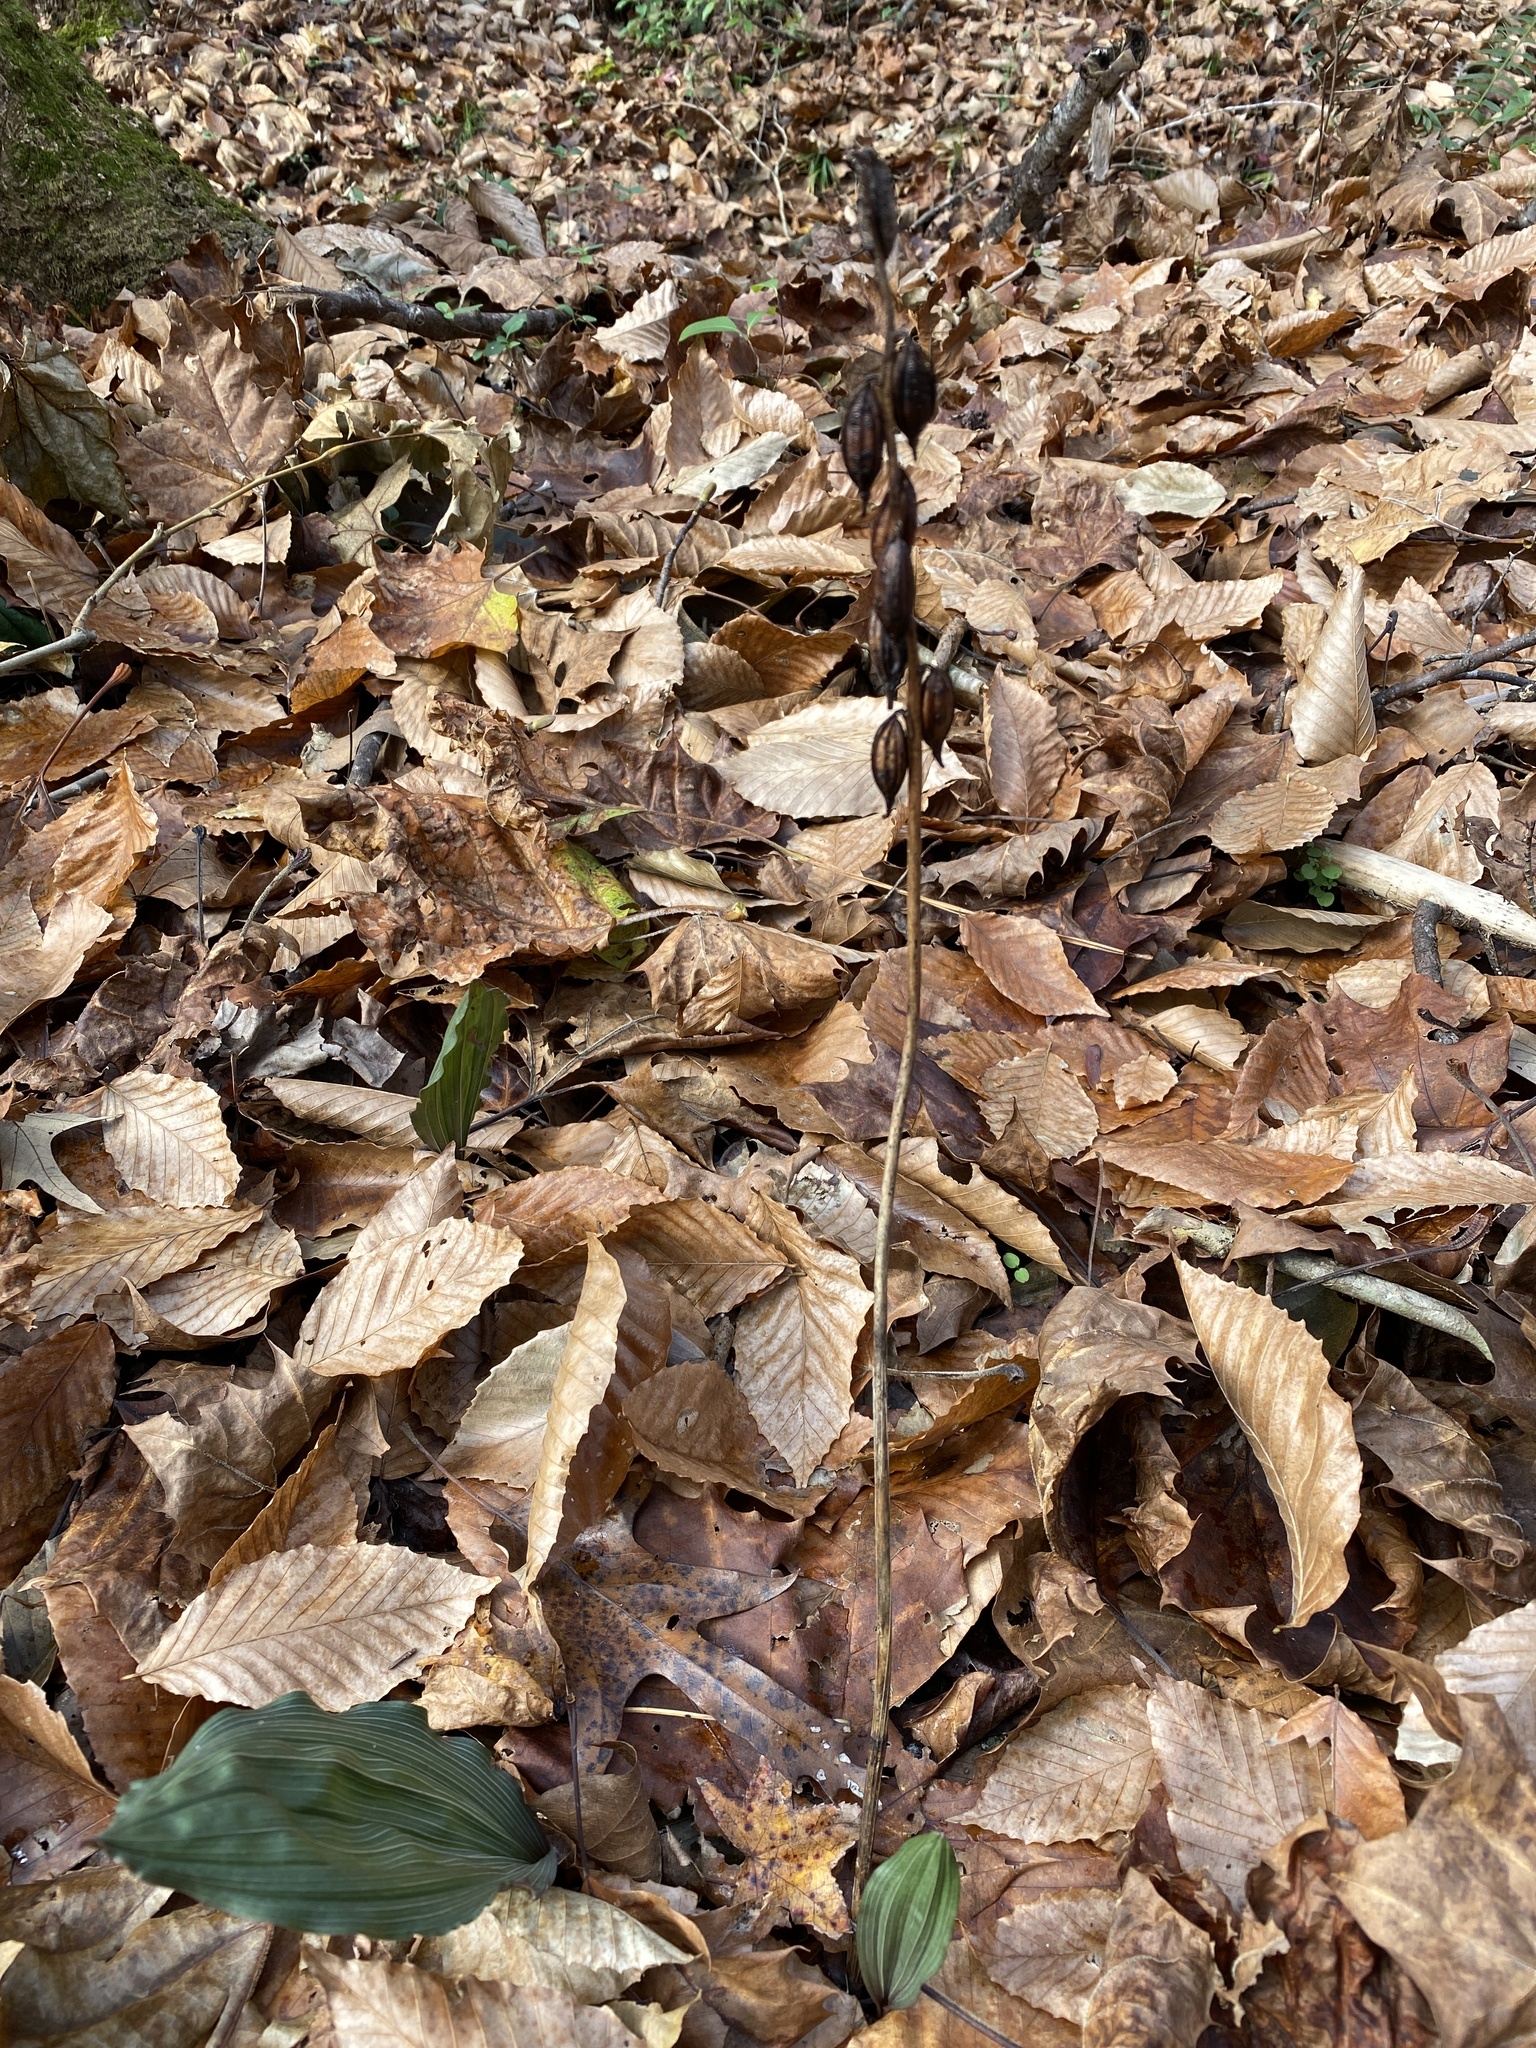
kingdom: Plantae
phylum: Tracheophyta
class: Liliopsida
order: Asparagales
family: Orchidaceae
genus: Aplectrum
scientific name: Aplectrum hyemale
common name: Adam-and-eve
